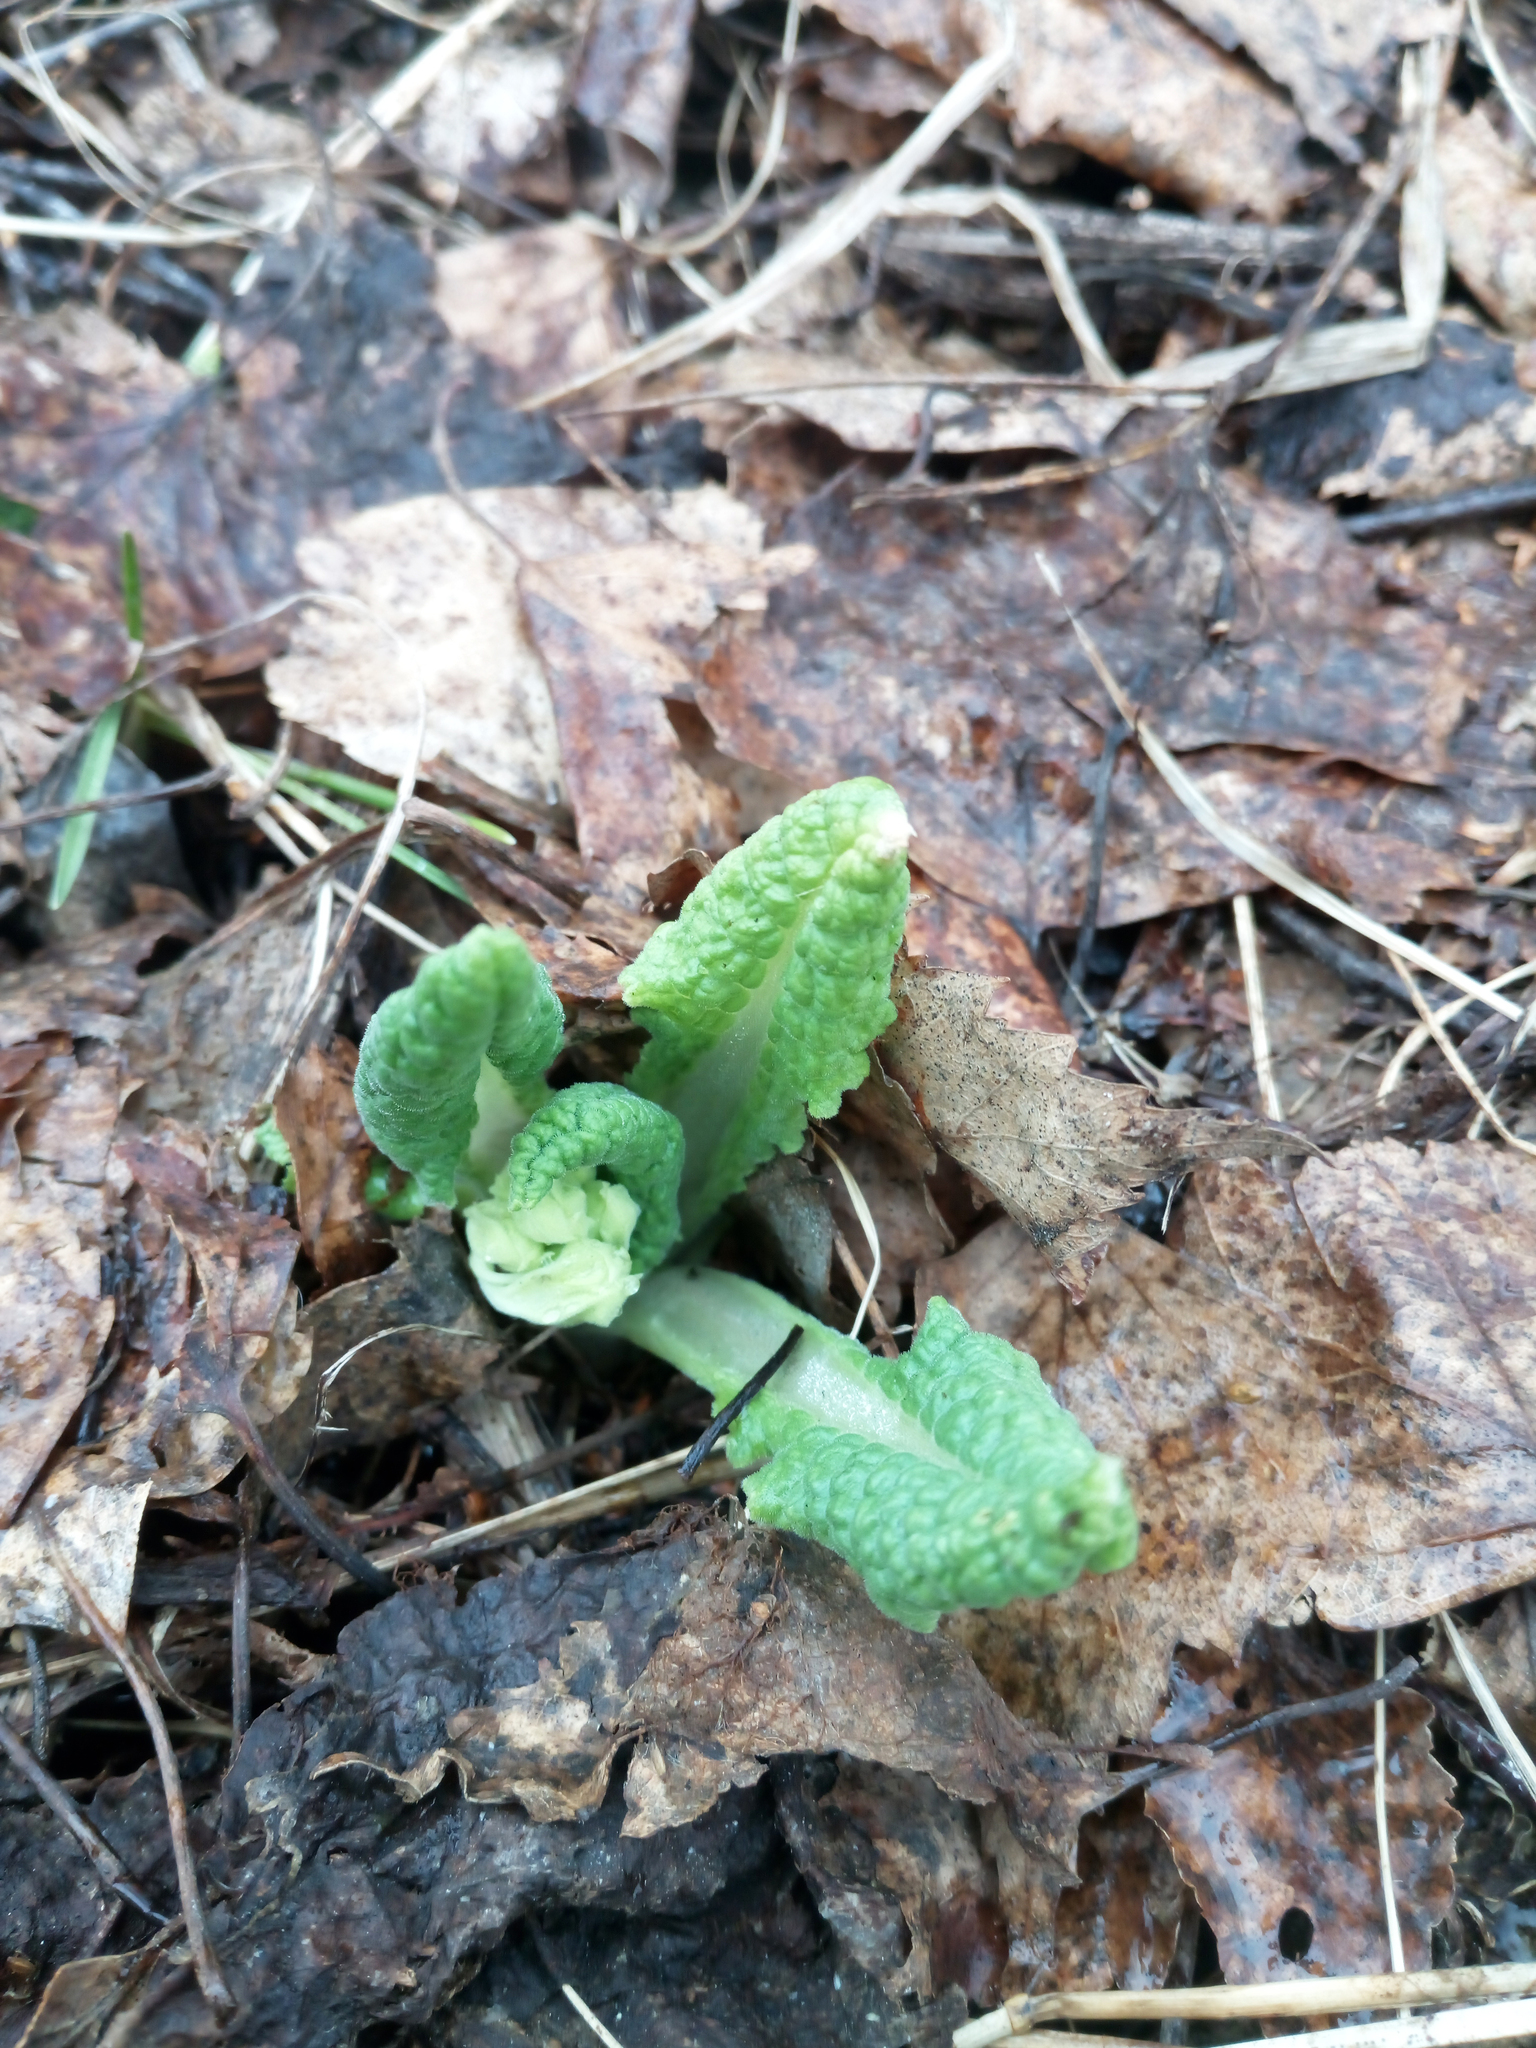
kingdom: Plantae
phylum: Tracheophyta
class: Magnoliopsida
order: Ericales
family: Primulaceae
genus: Primula
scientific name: Primula veris
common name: Cowslip
